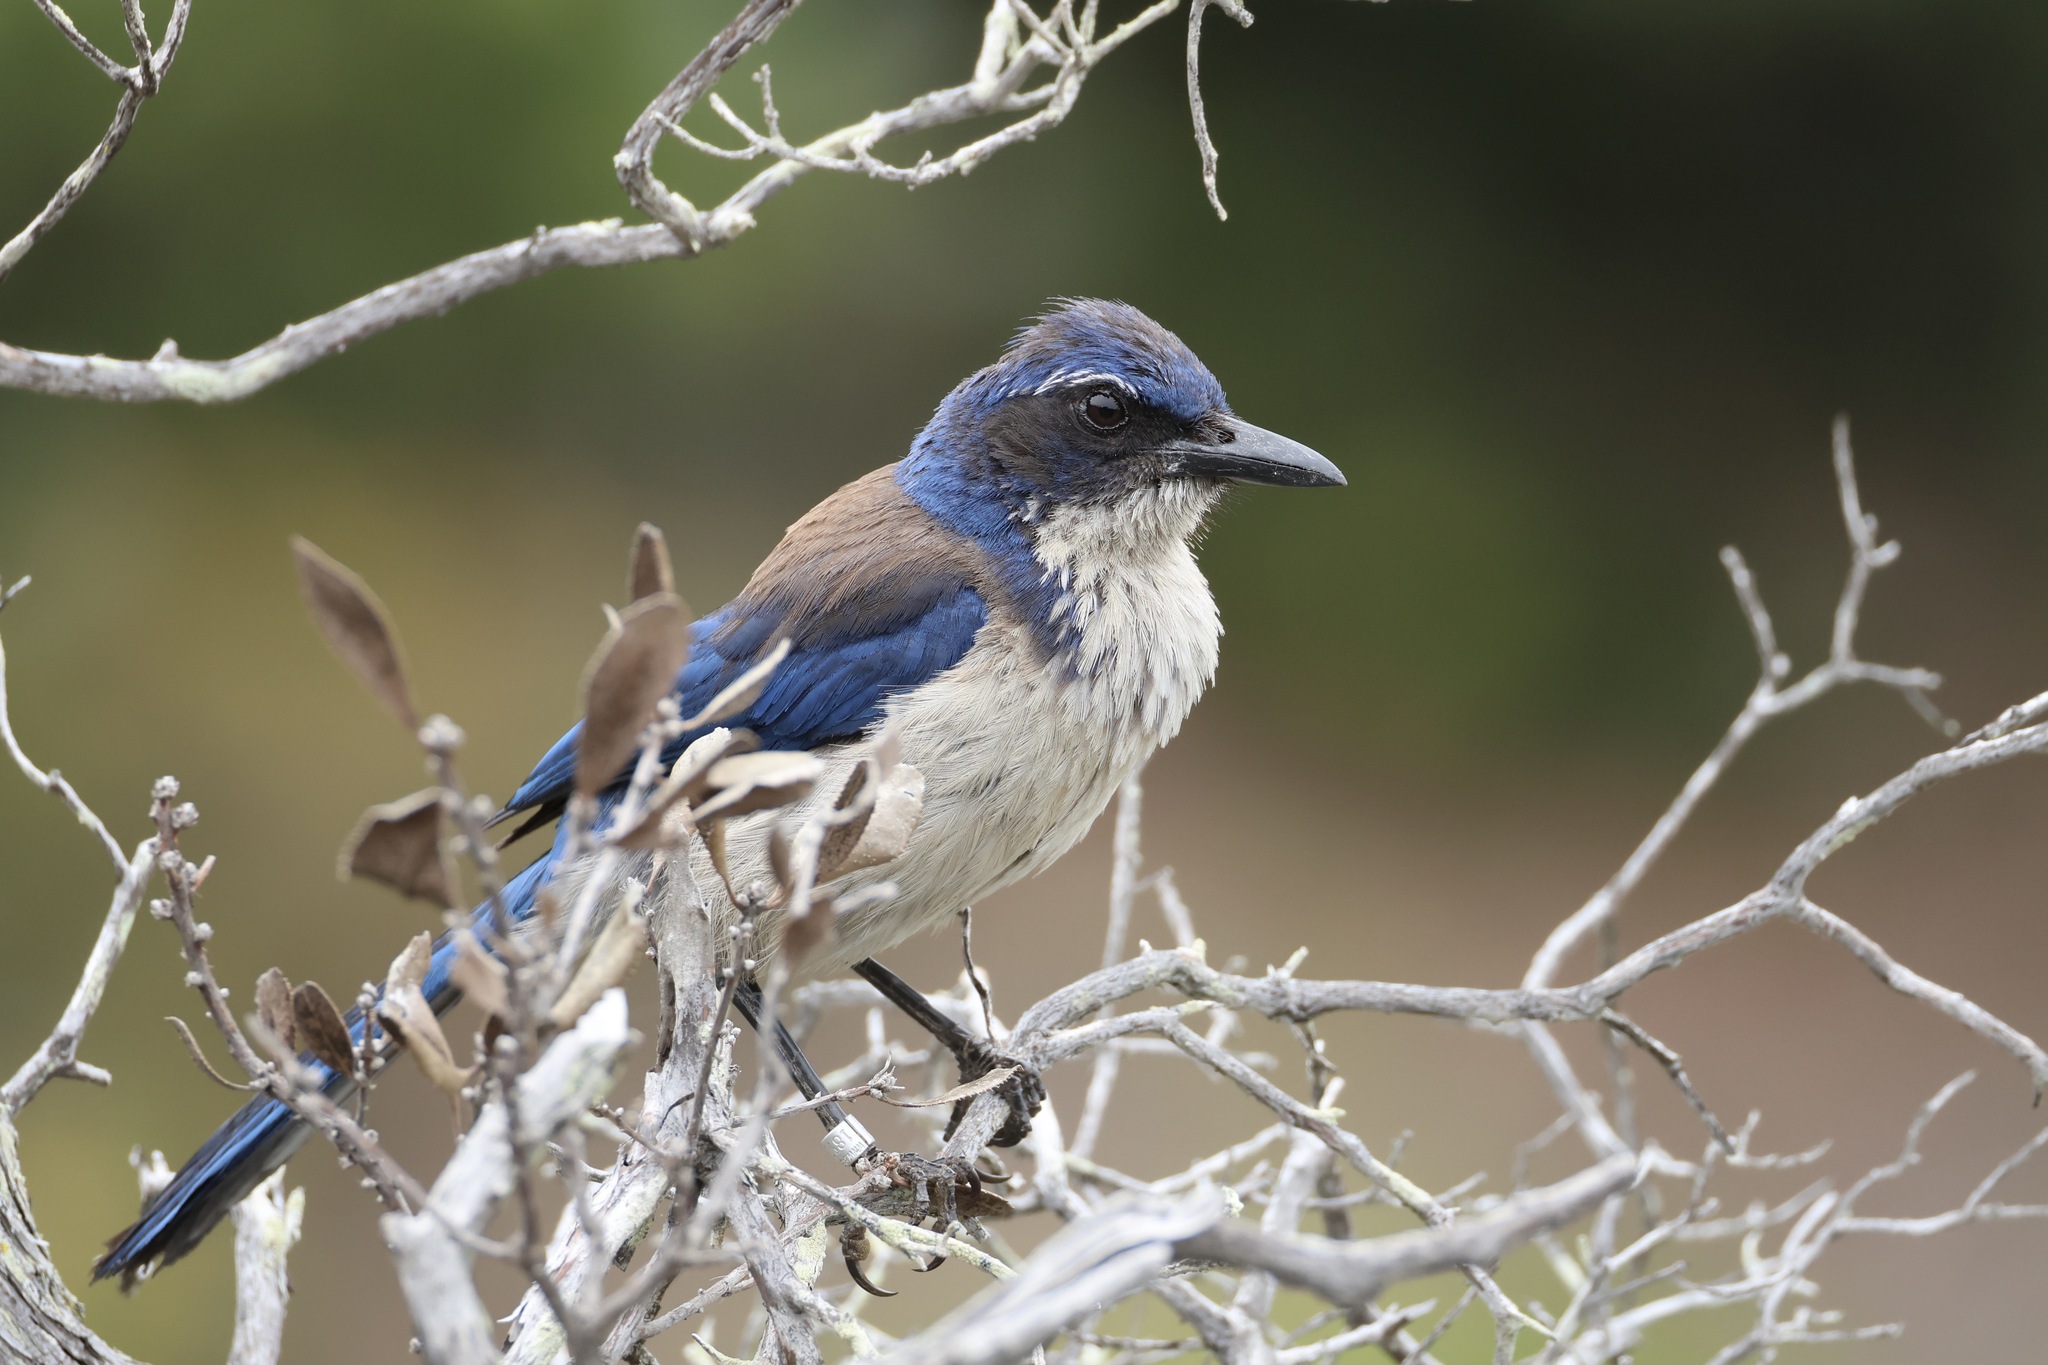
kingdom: Animalia
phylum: Chordata
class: Aves
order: Passeriformes
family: Corvidae
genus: Aphelocoma
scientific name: Aphelocoma insularis
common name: Island scrub-jay
